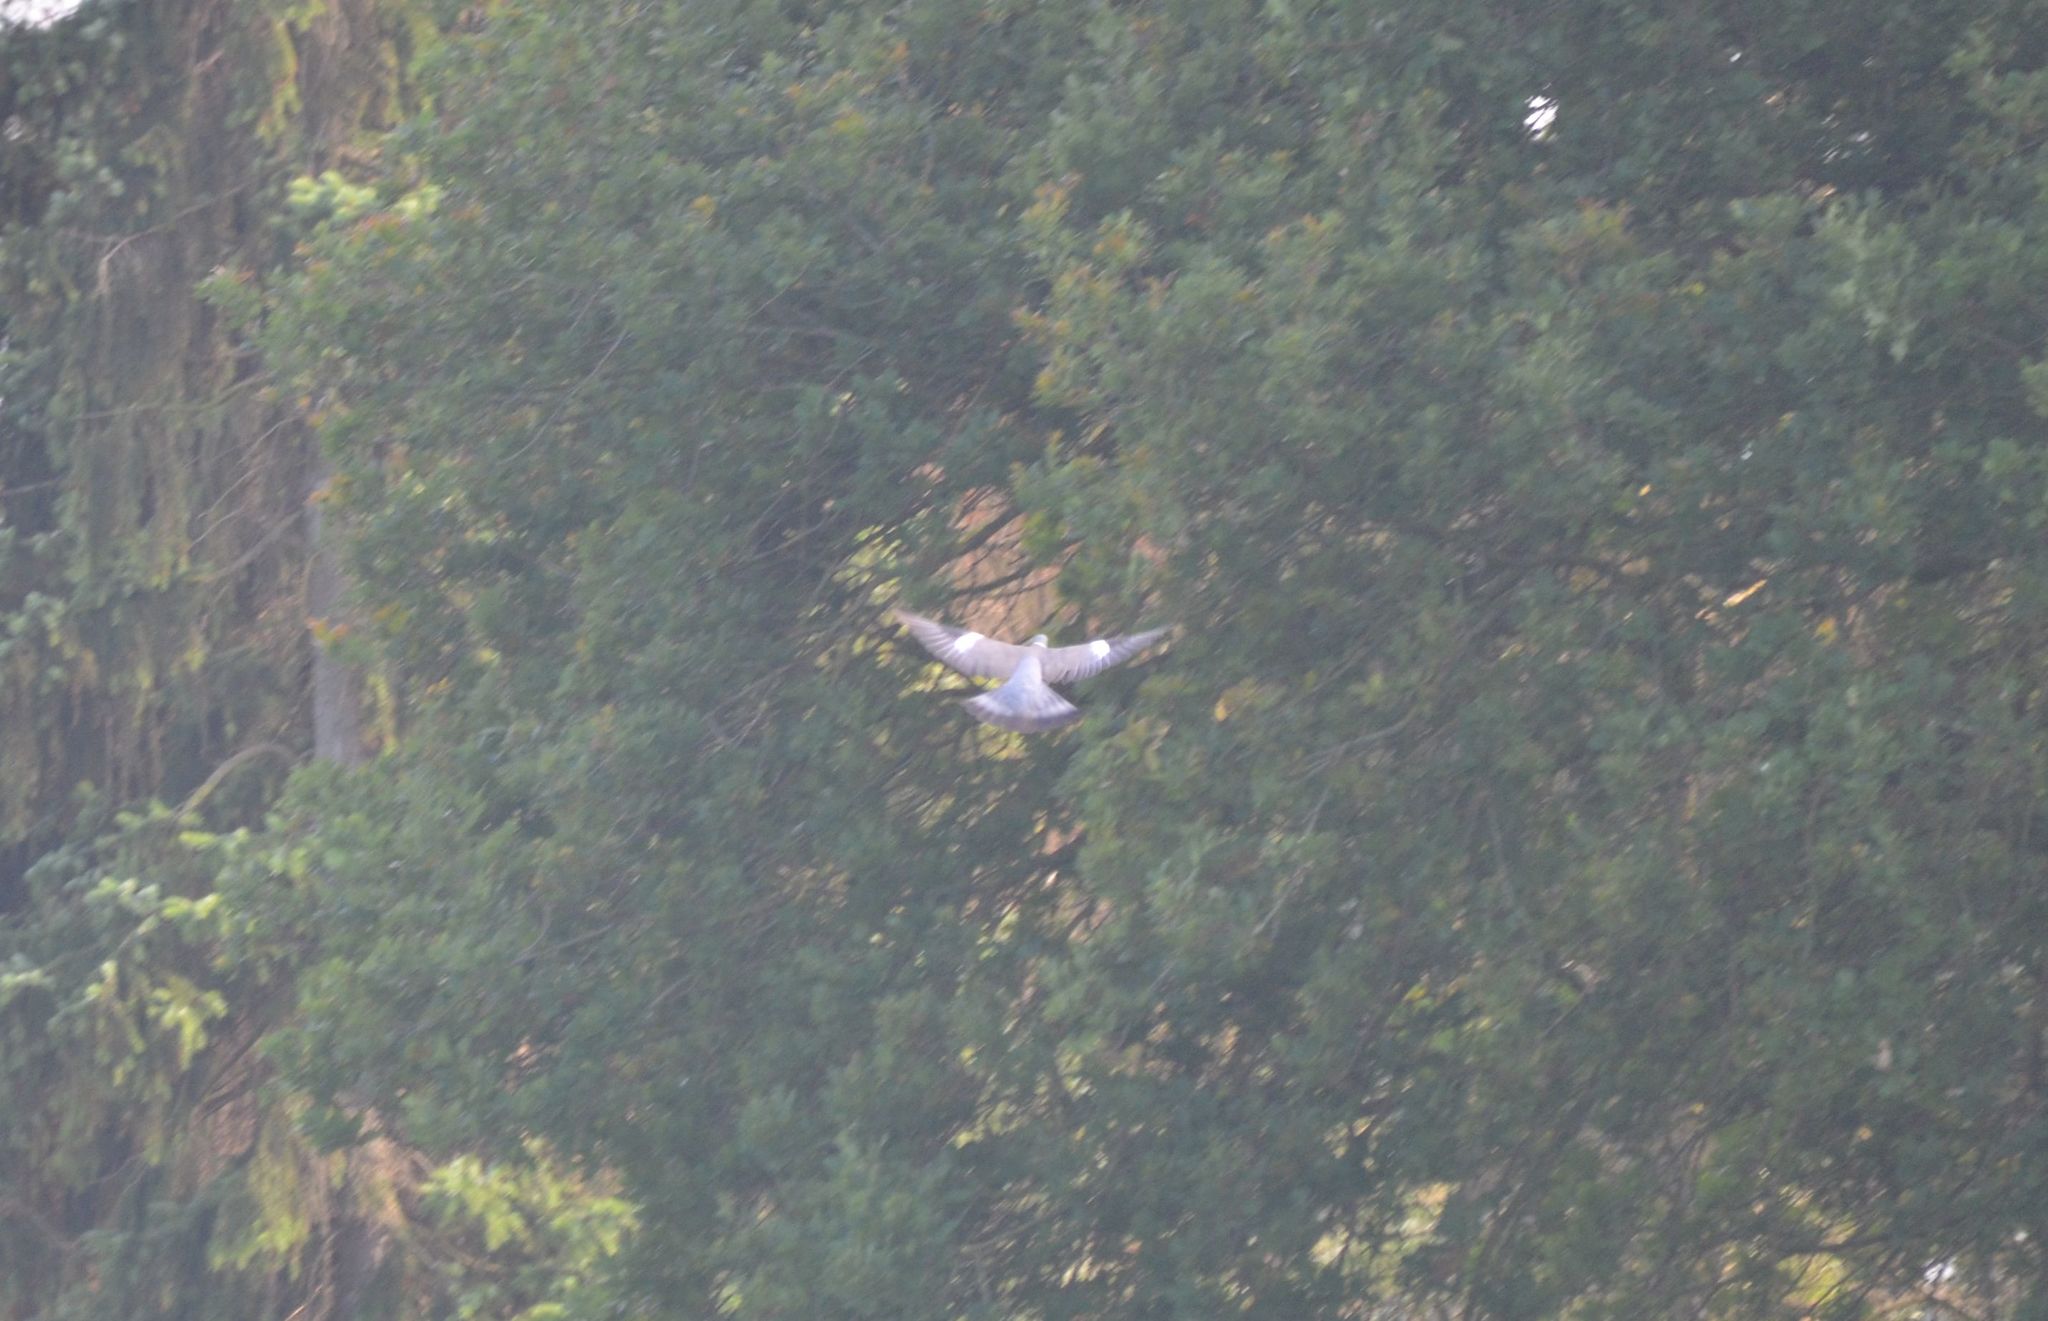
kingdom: Animalia
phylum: Chordata
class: Aves
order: Columbiformes
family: Columbidae
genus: Columba
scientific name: Columba palumbus
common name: Common wood pigeon
